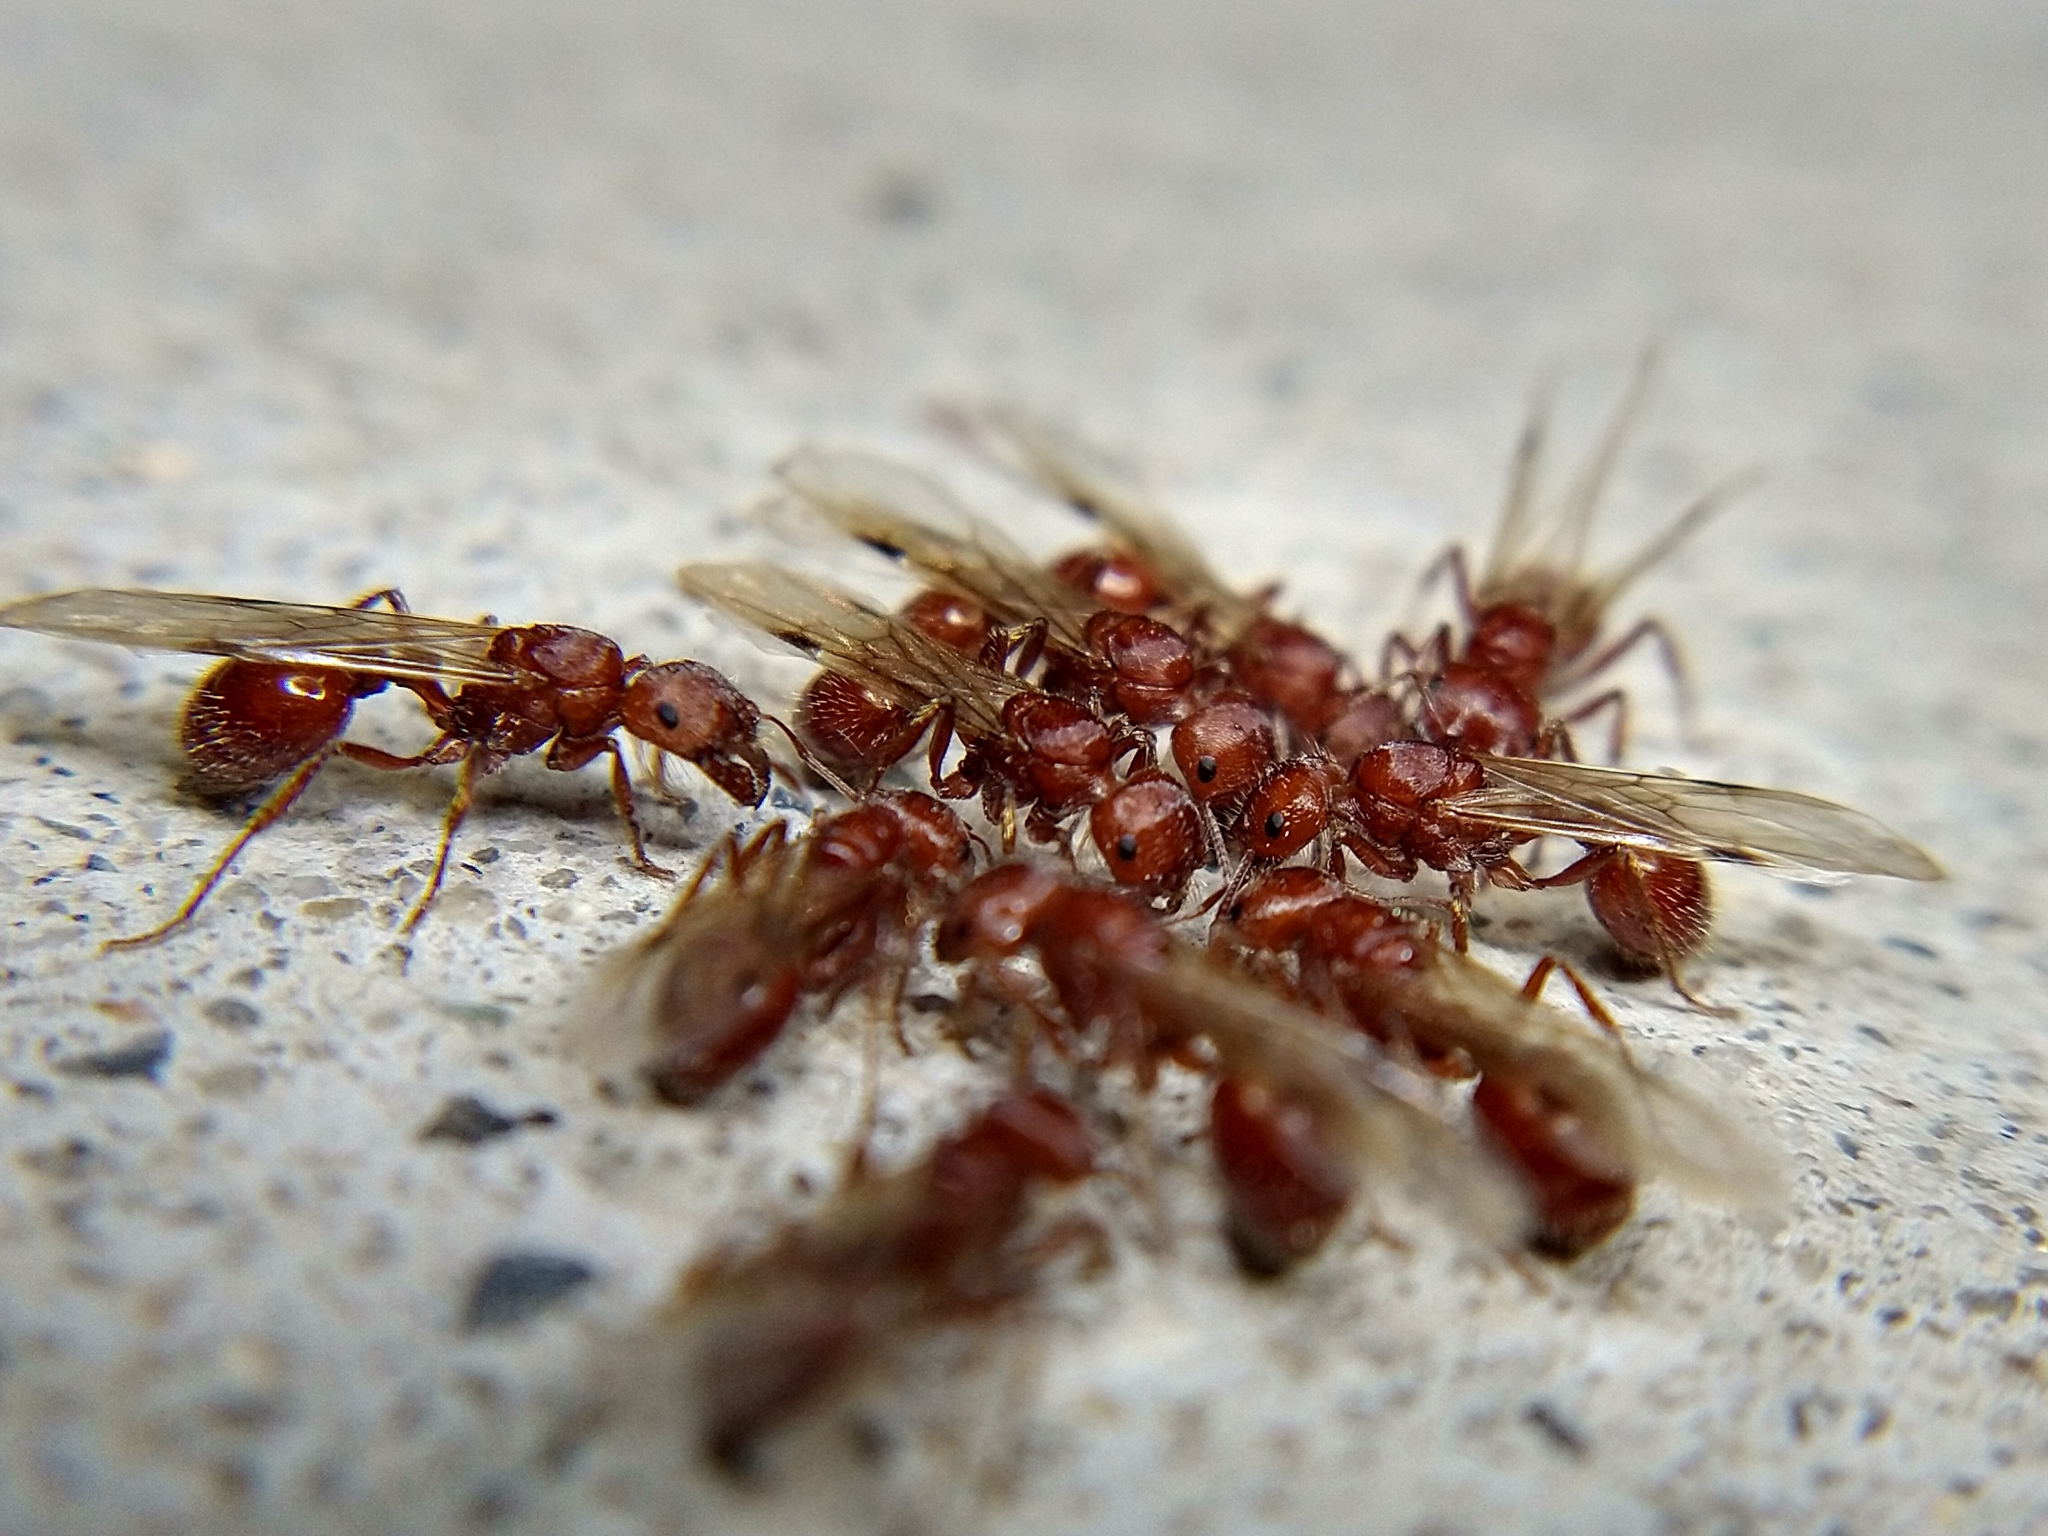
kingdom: Animalia
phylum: Arthropoda
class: Insecta
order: Hymenoptera
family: Formicidae
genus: Pogonomyrmex
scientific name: Pogonomyrmex
